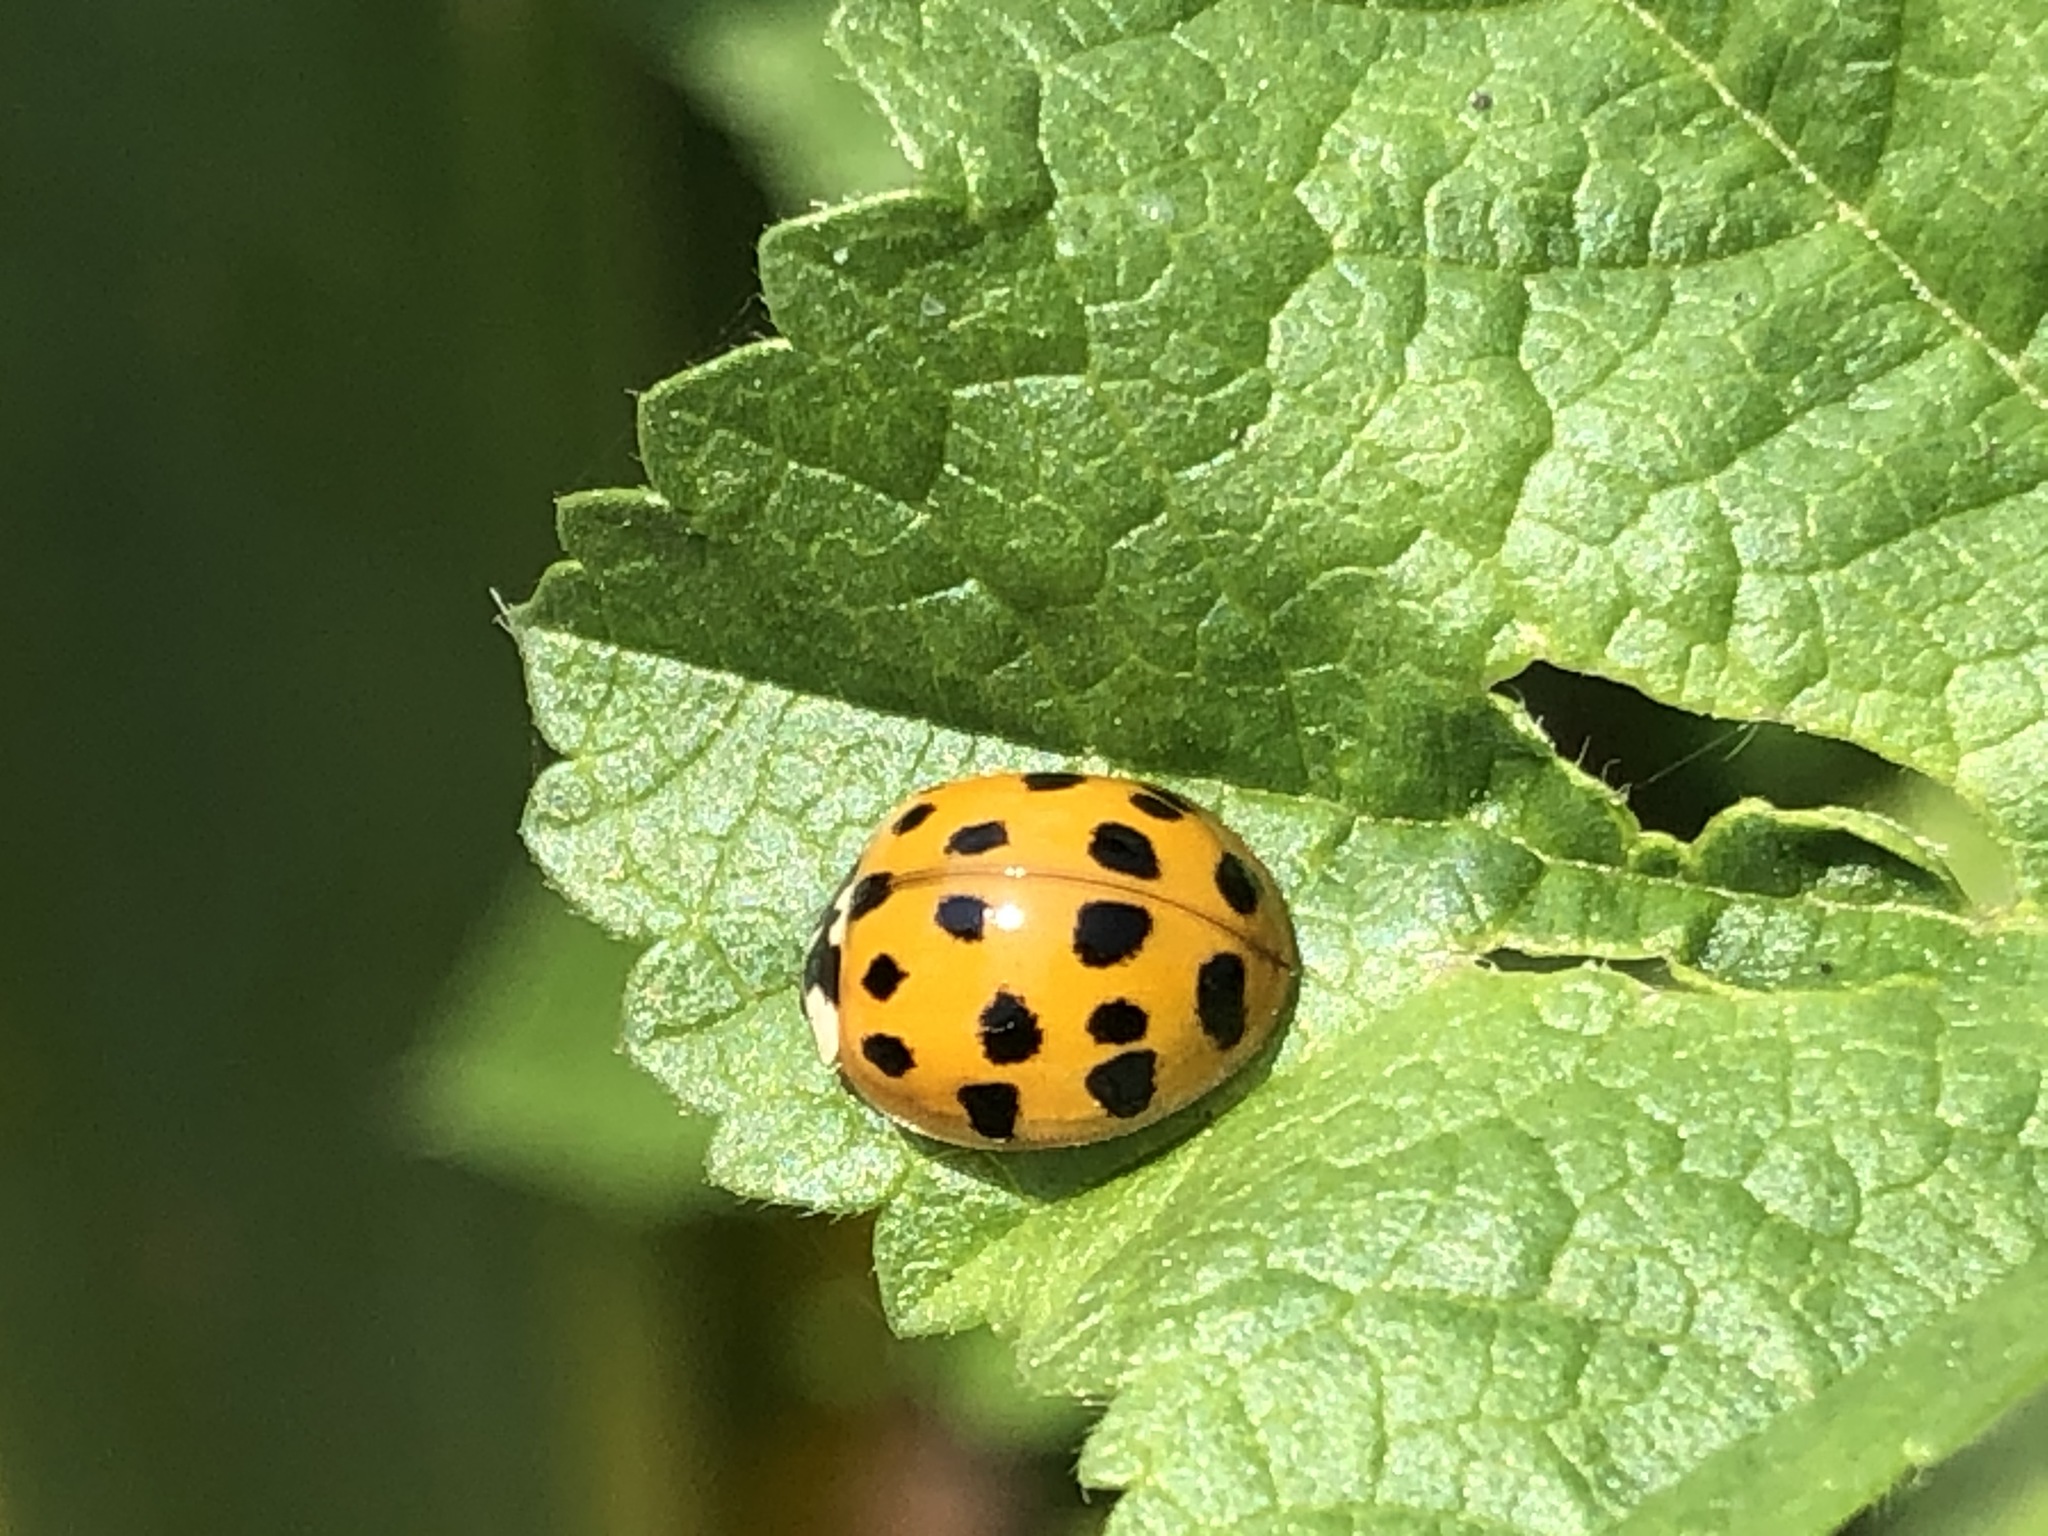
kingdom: Animalia
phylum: Arthropoda
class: Insecta
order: Coleoptera
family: Coccinellidae
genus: Harmonia
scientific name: Harmonia axyridis
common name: Harlequin ladybird
